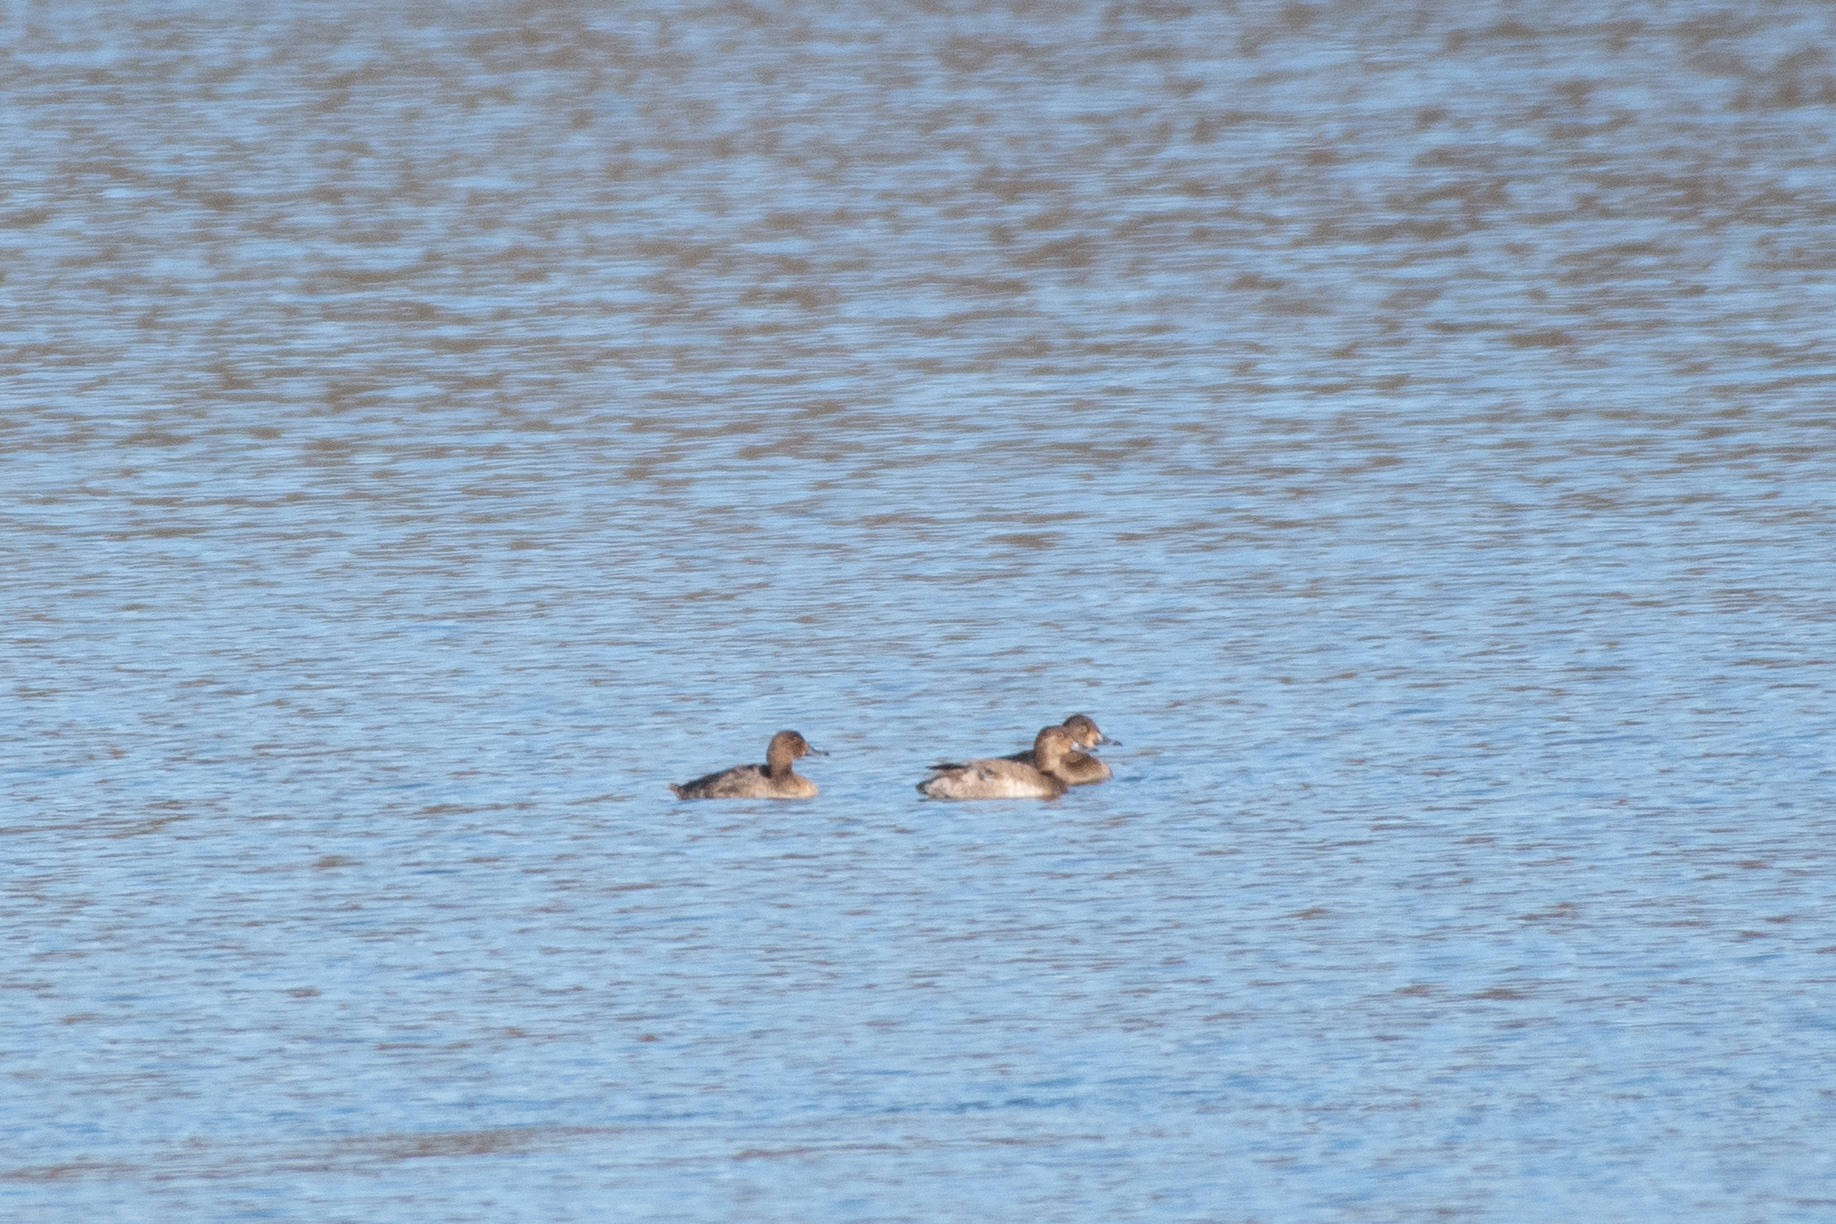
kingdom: Animalia
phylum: Chordata
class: Aves
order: Anseriformes
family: Anatidae
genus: Aythya
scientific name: Aythya americana
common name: Redhead
